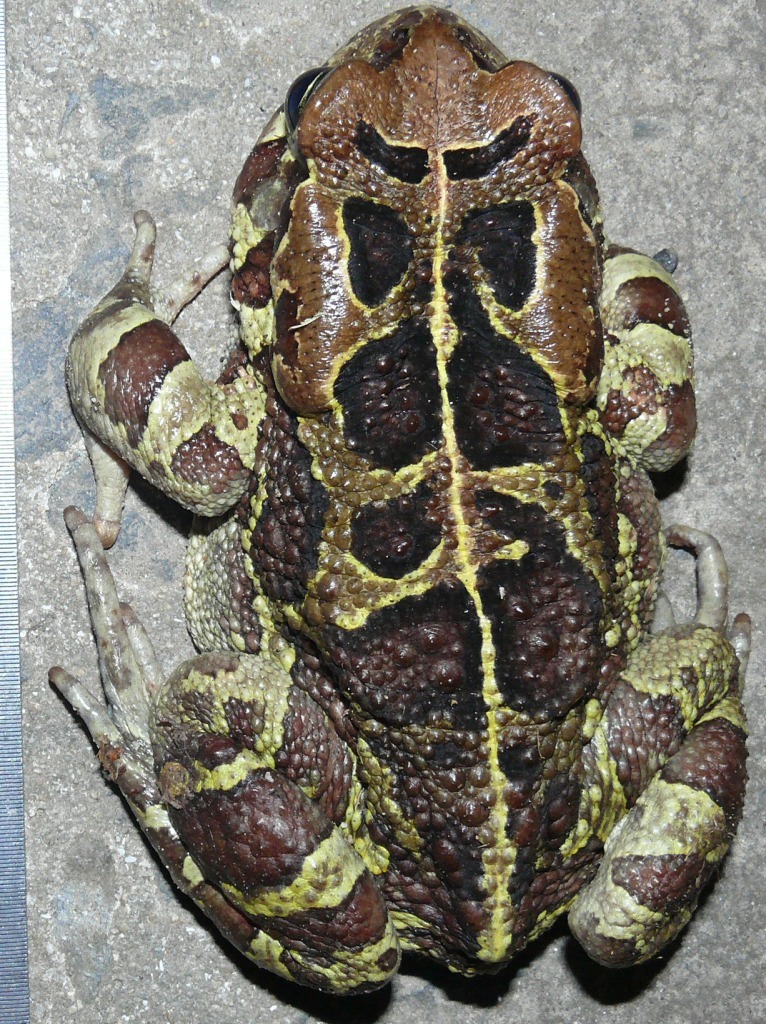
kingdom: Animalia
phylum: Chordata
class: Amphibia
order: Anura
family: Bufonidae
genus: Sclerophrys
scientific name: Sclerophrys pantherina
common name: Panther toad
